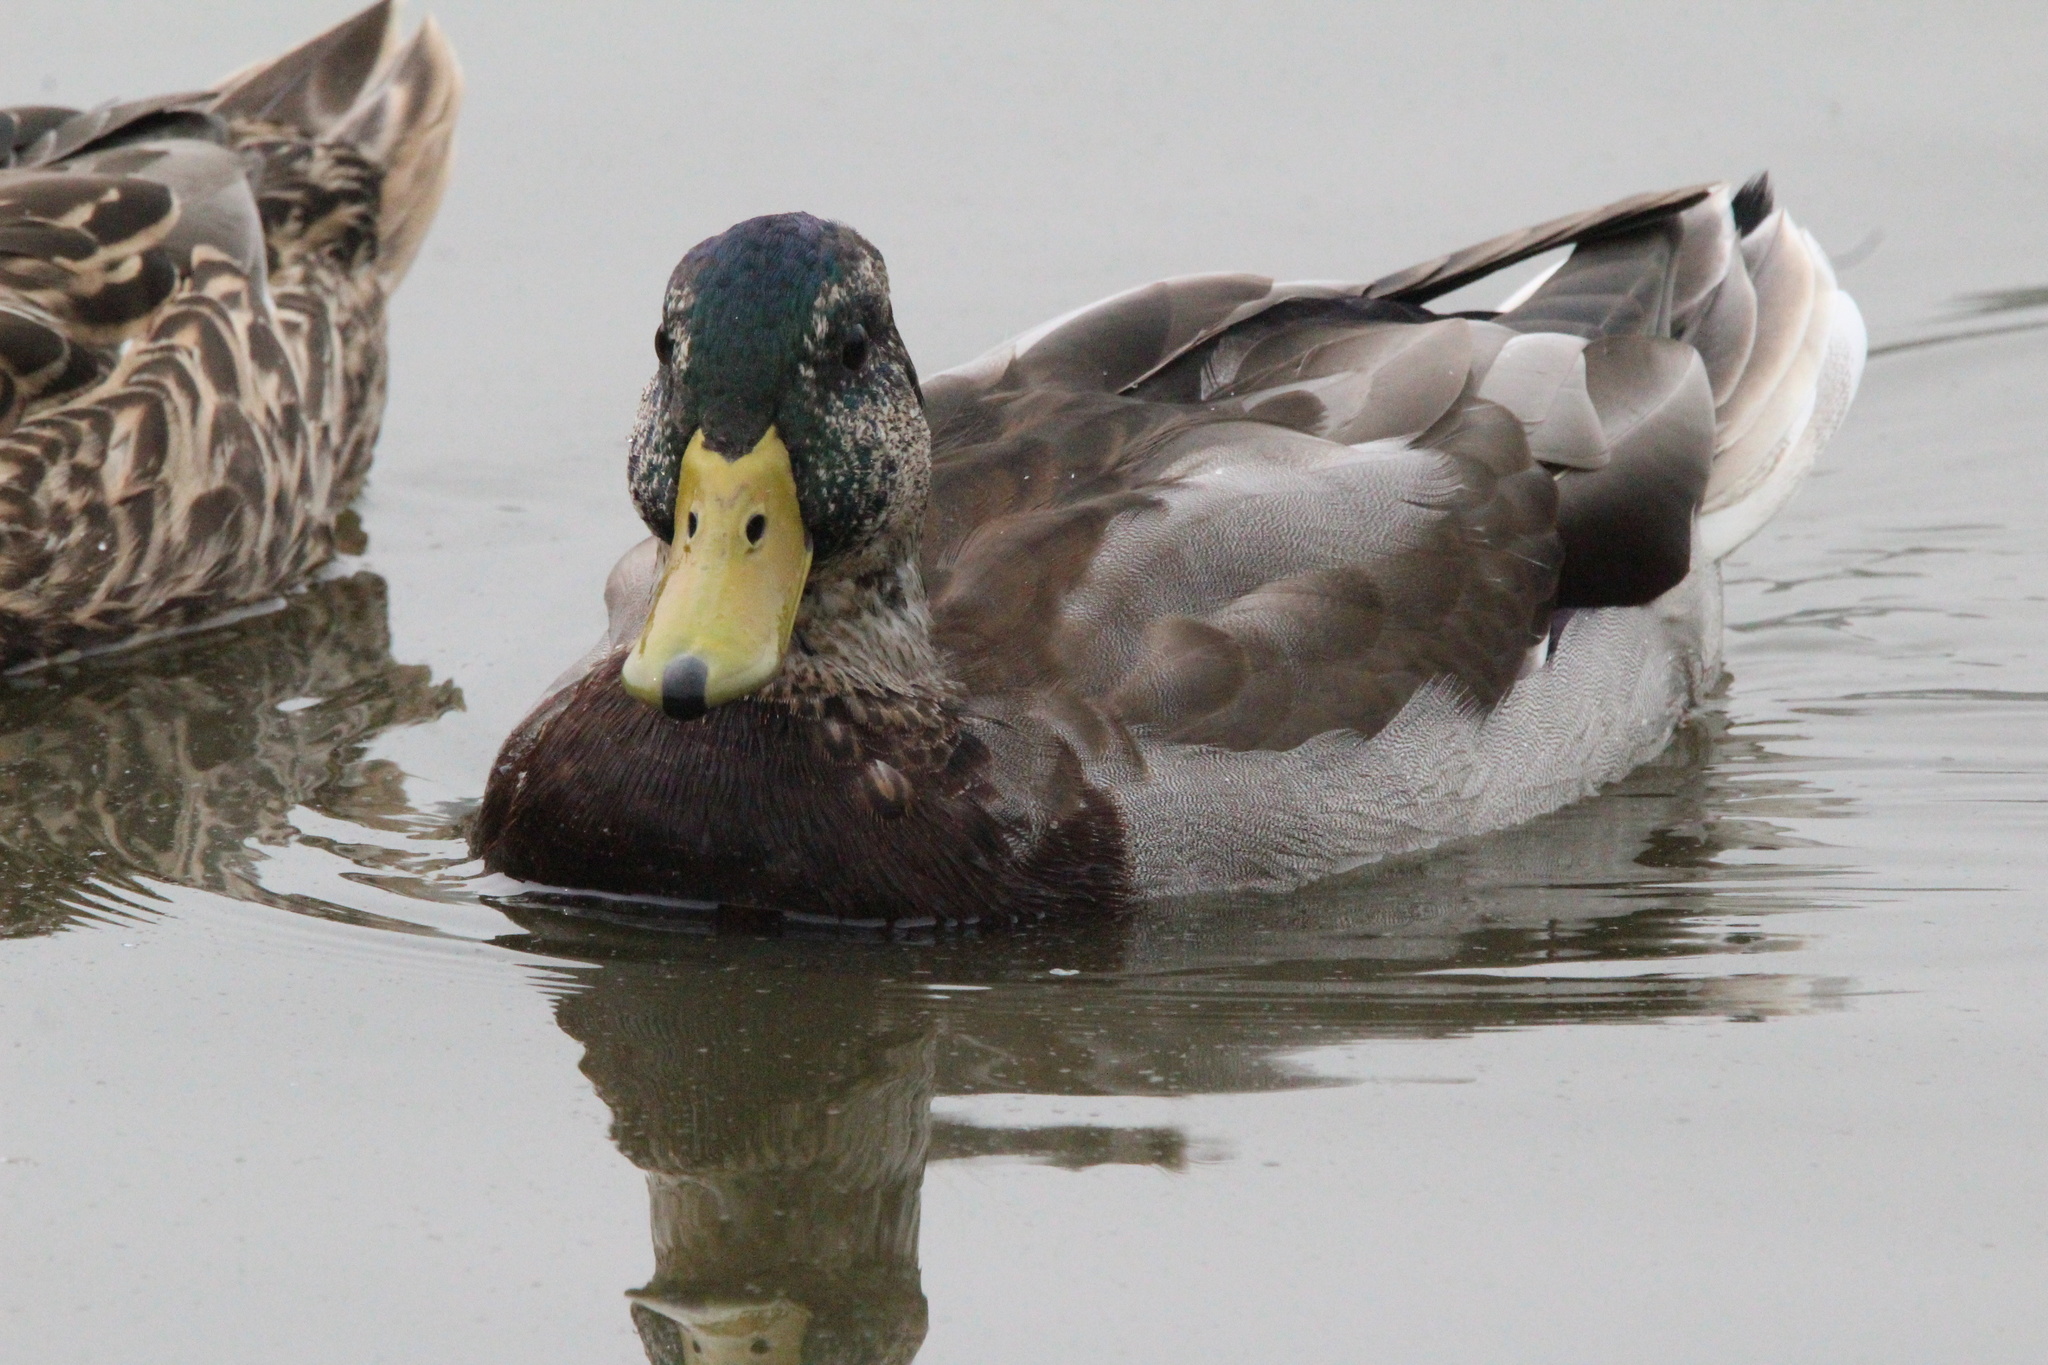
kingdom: Animalia
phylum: Chordata
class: Aves
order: Anseriformes
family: Anatidae
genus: Anas
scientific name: Anas platyrhynchos
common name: Mallard
